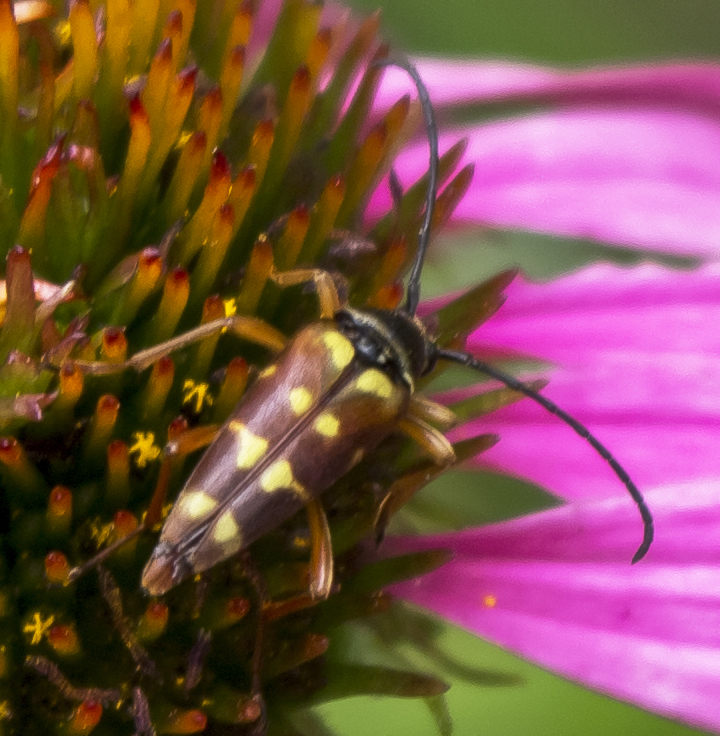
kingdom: Animalia
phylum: Arthropoda
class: Insecta
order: Coleoptera
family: Cerambycidae
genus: Typocerus
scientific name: Typocerus velutinus
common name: Banded longhorn beetle
